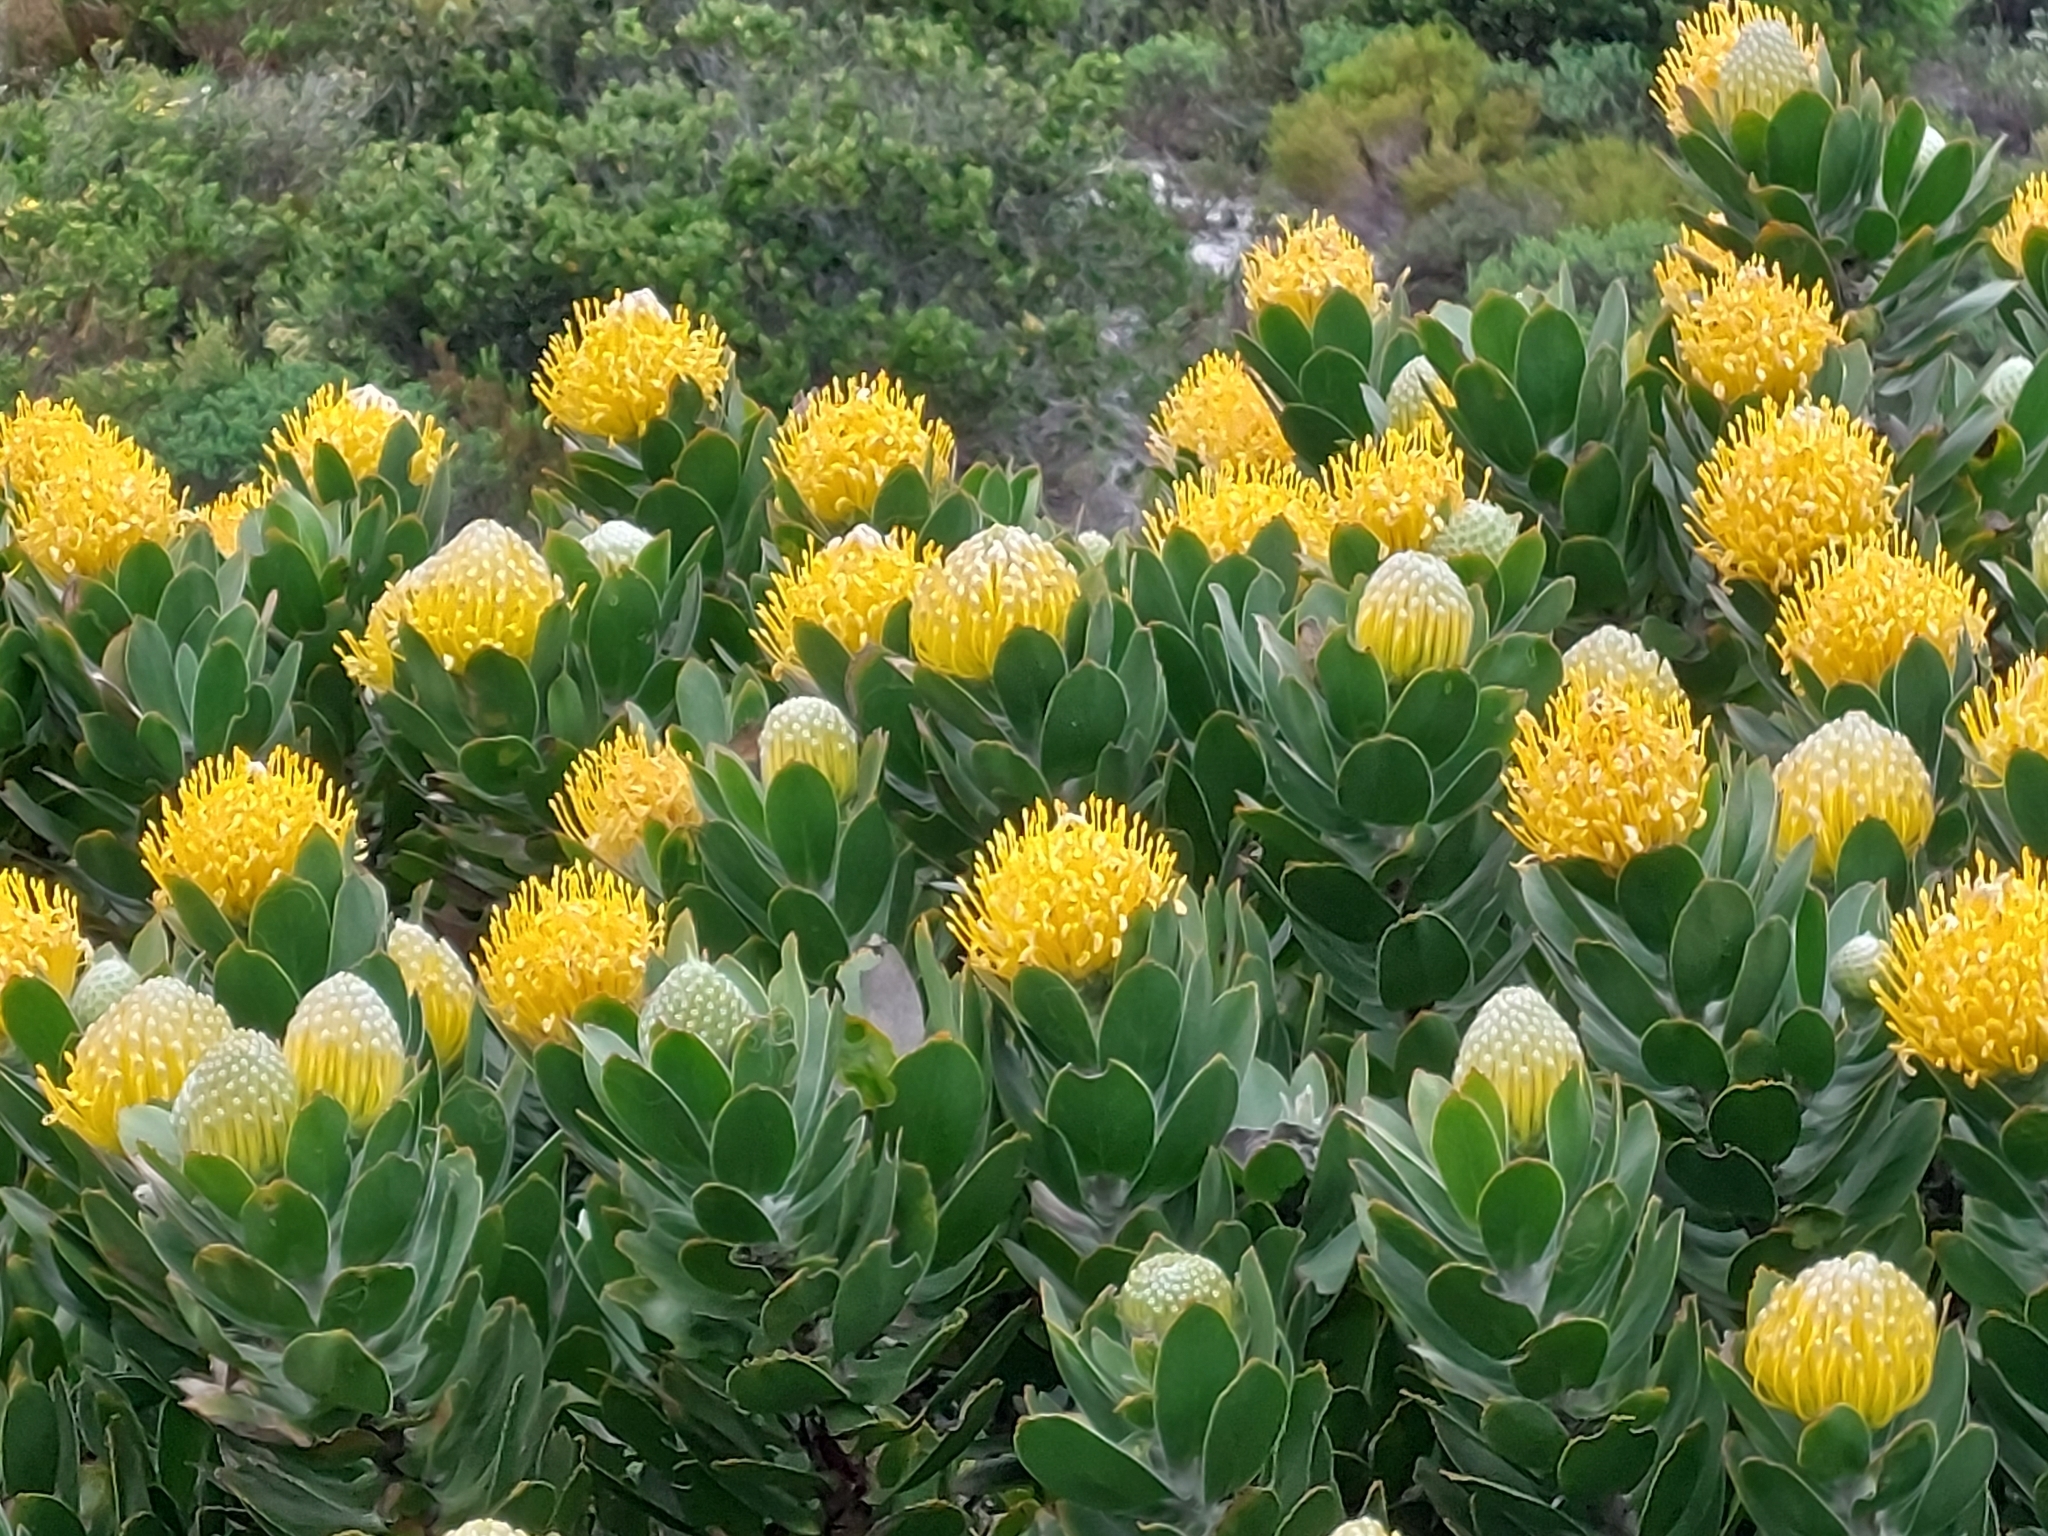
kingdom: Plantae
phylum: Tracheophyta
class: Magnoliopsida
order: Proteales
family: Proteaceae
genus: Leucospermum
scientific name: Leucospermum conocarpodendron
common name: Tree pincushion
